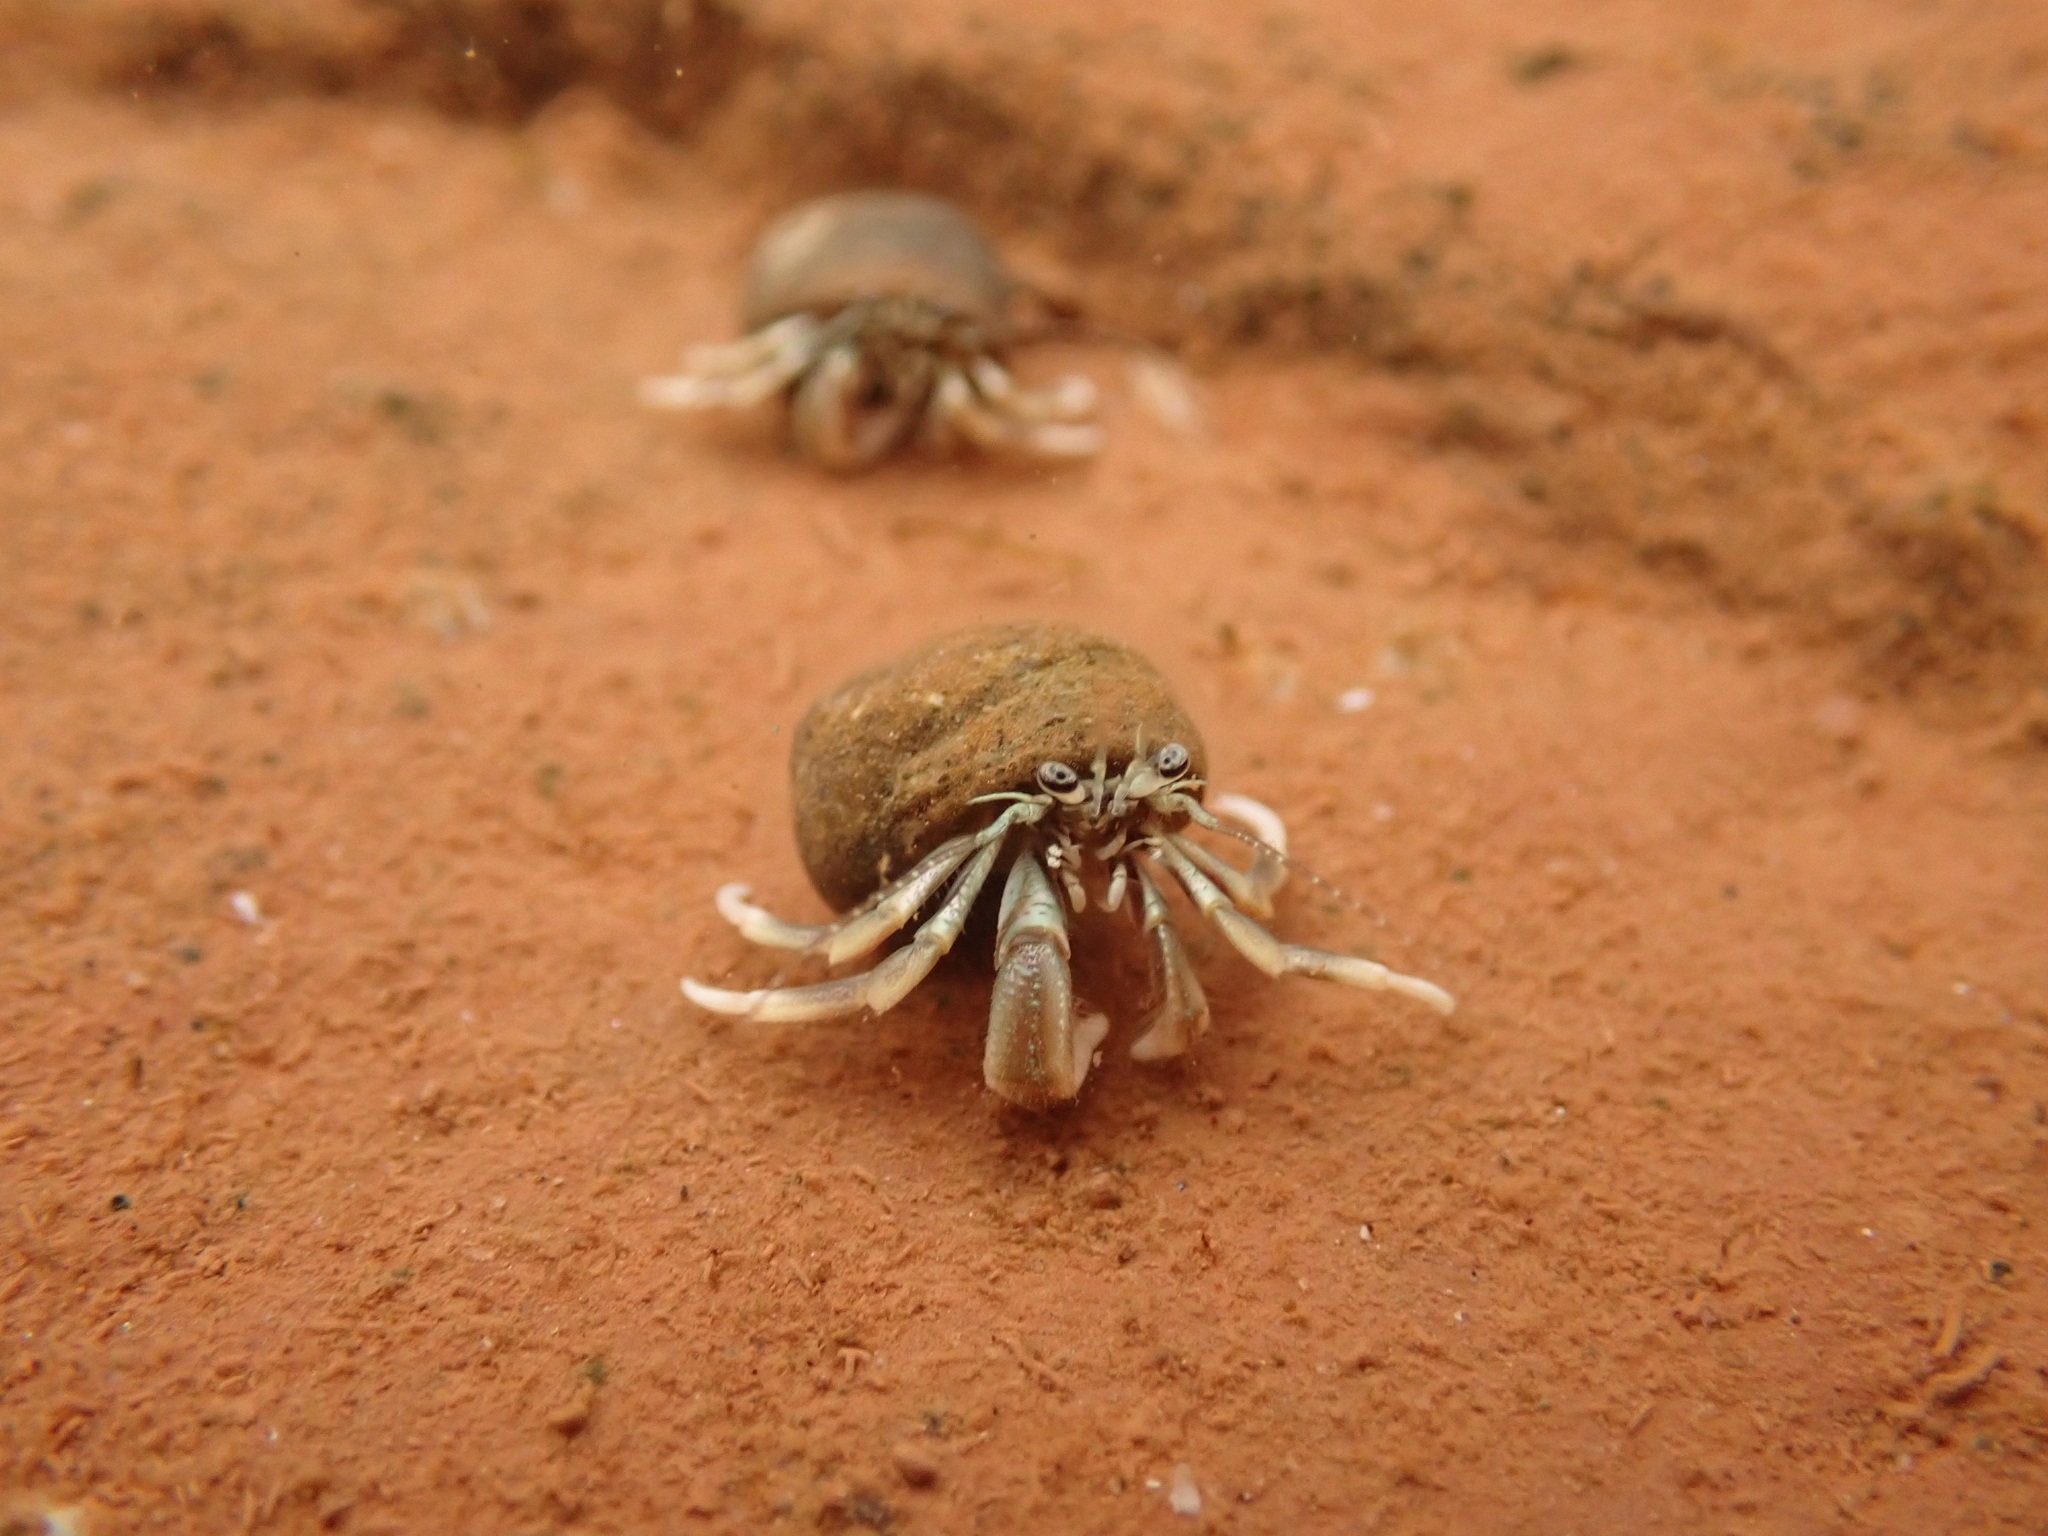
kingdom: Animalia
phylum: Arthropoda
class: Malacostraca
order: Decapoda
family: Paguridae
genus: Pagurus
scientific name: Pagurus longicarpus
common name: Long-armed hermit crab
